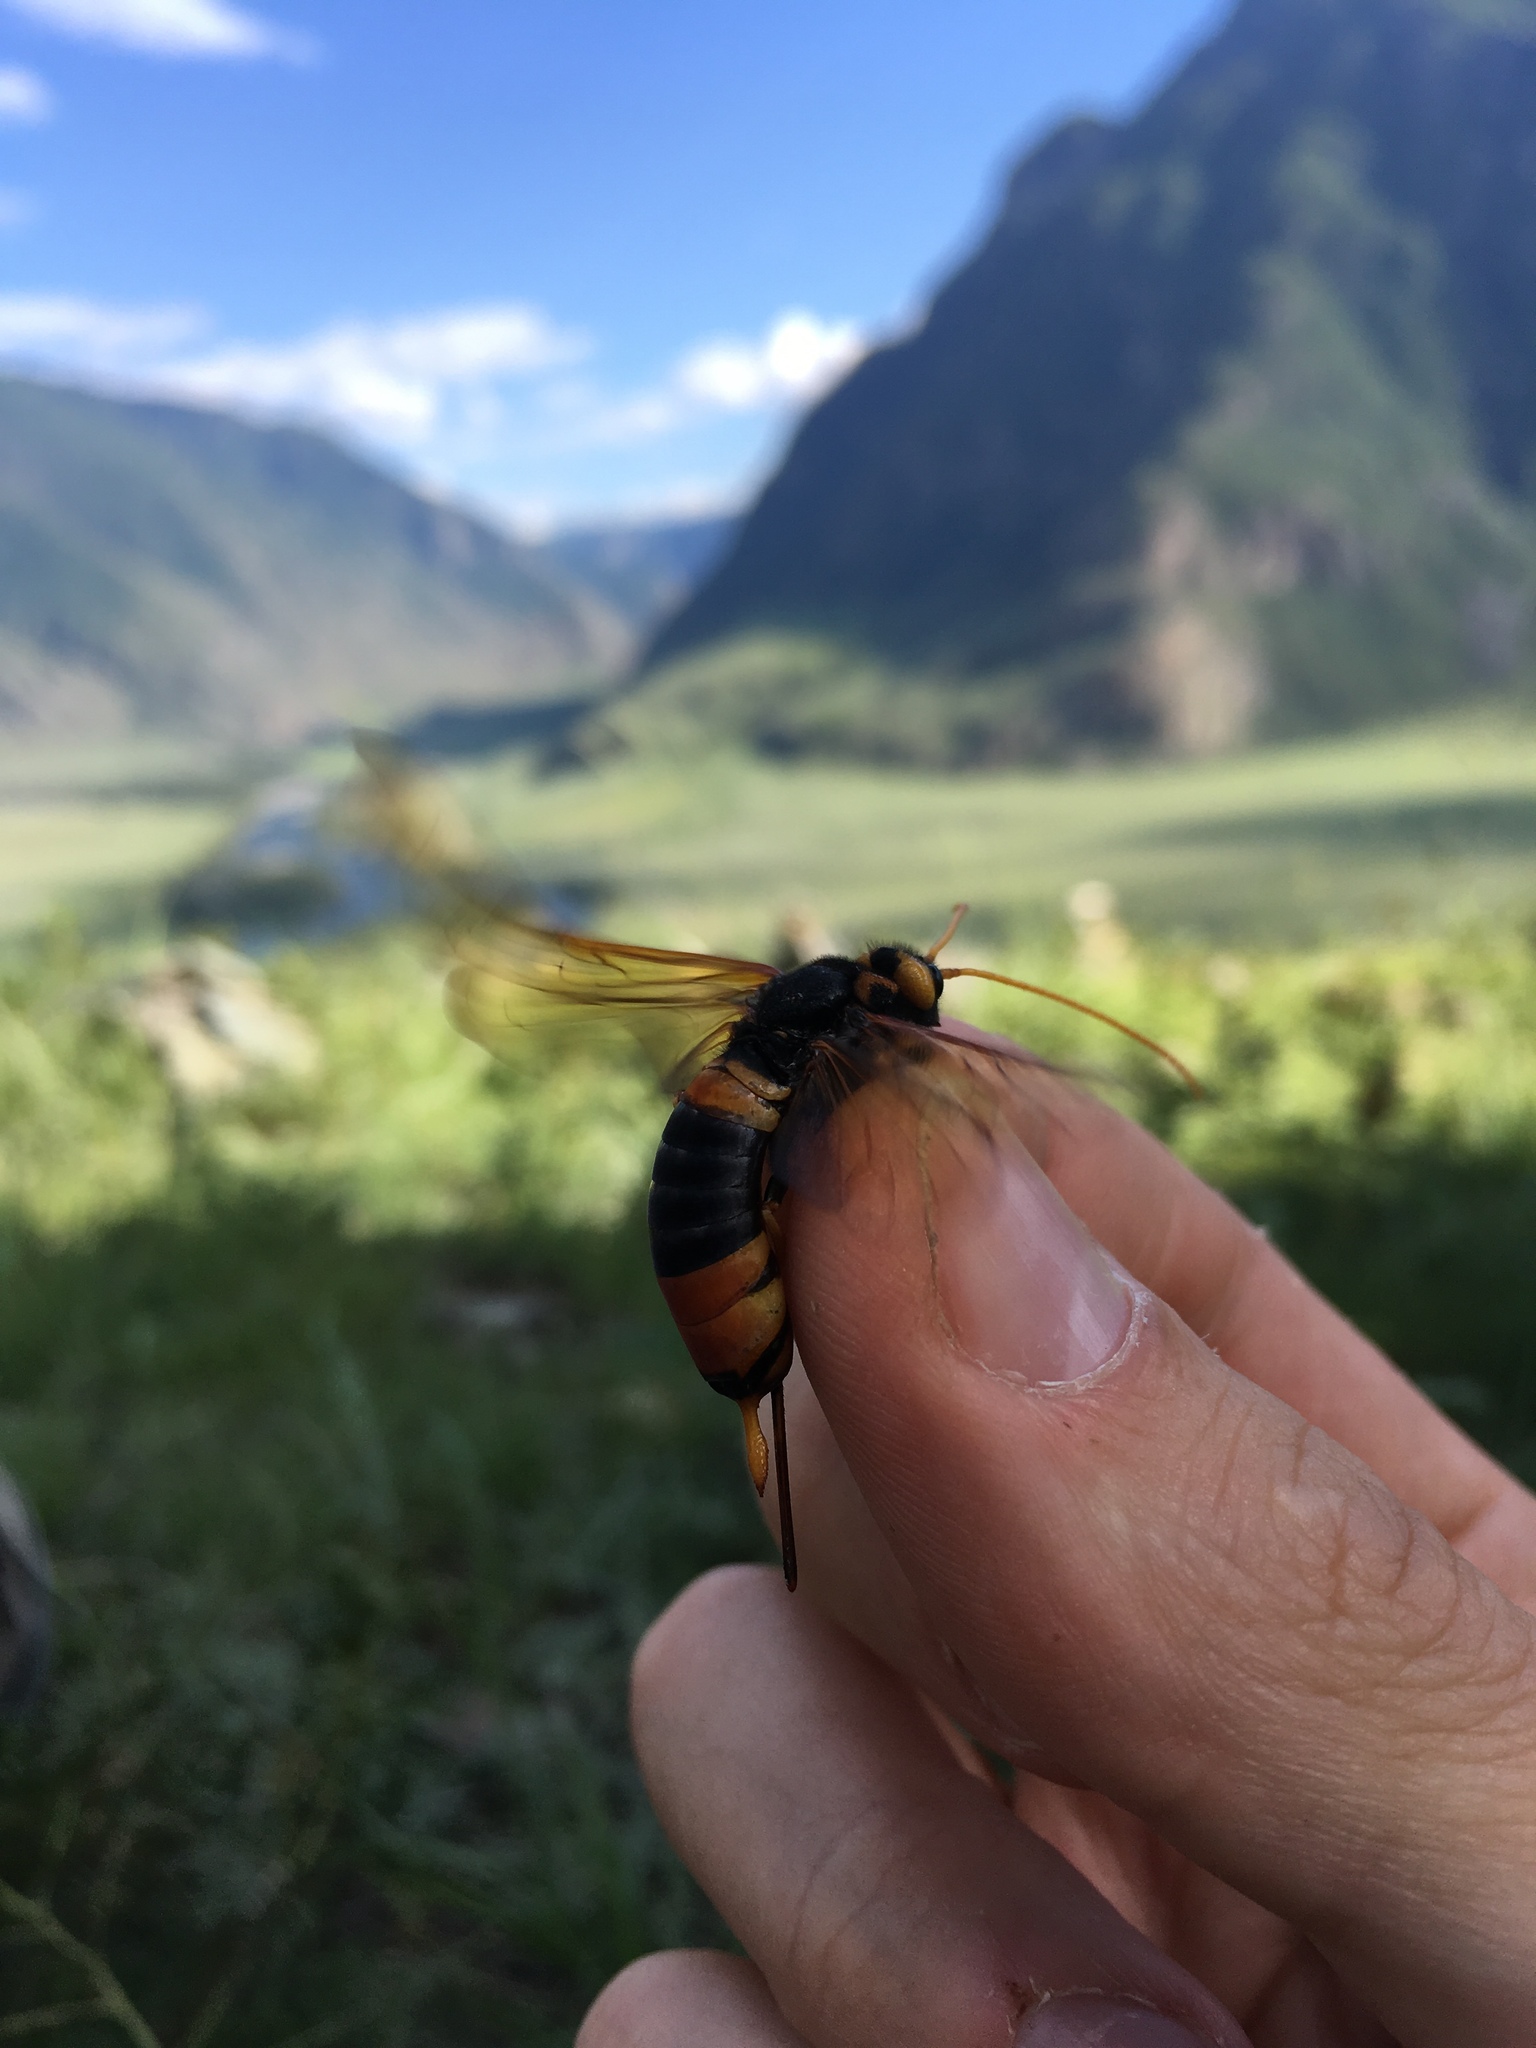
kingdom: Animalia
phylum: Arthropoda
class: Insecta
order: Hymenoptera
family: Siricidae
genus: Urocerus
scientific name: Urocerus gigas
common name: Giant woodwasp
